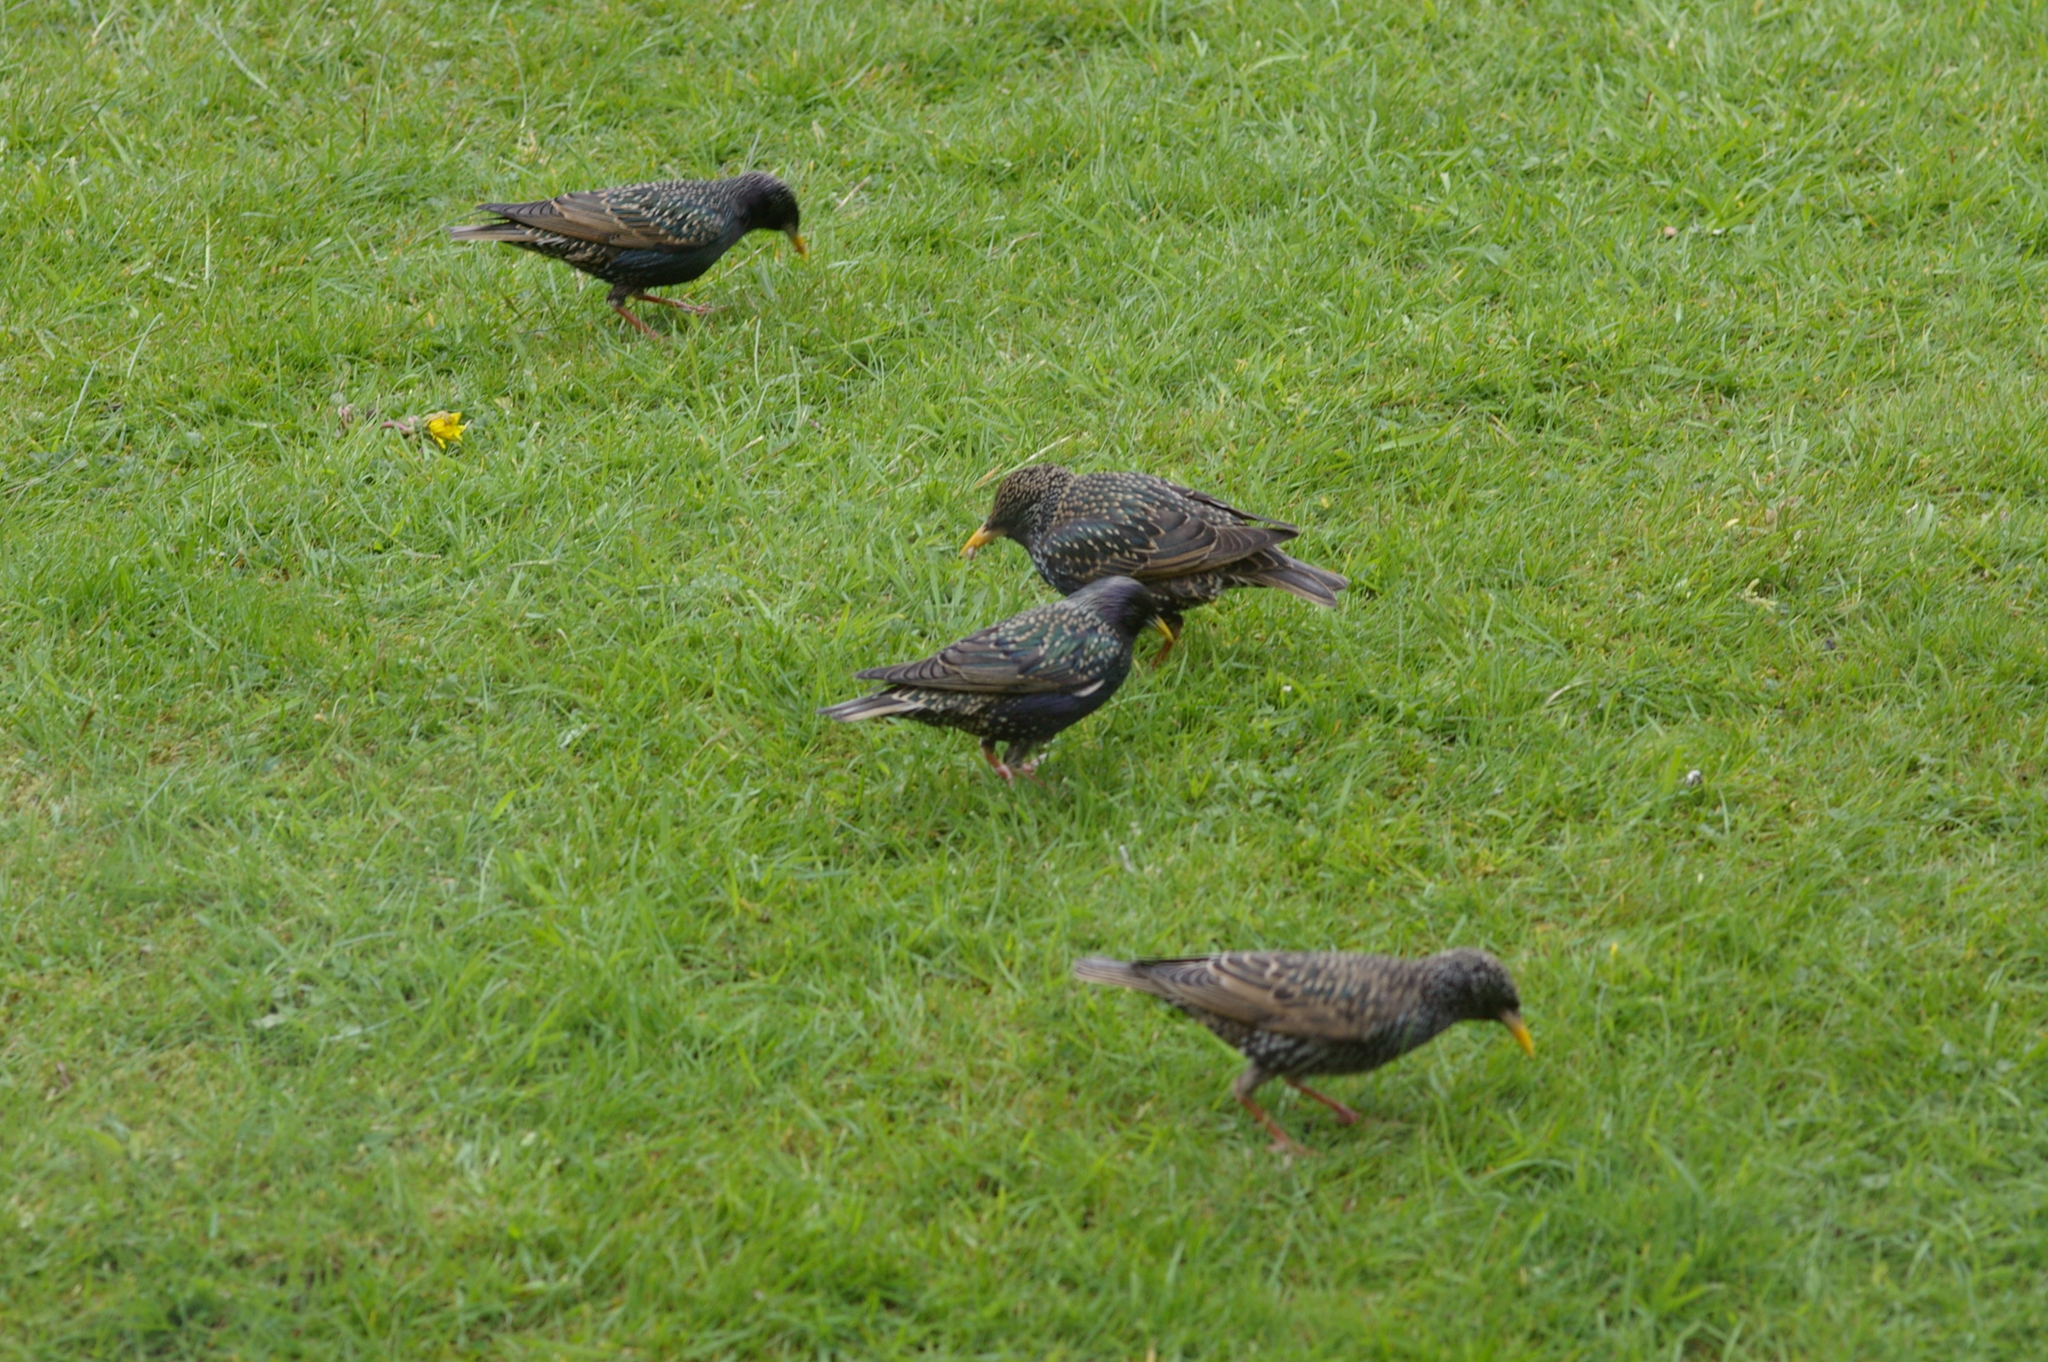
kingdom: Animalia
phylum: Chordata
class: Aves
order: Passeriformes
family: Sturnidae
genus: Sturnus
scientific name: Sturnus vulgaris
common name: Common starling
